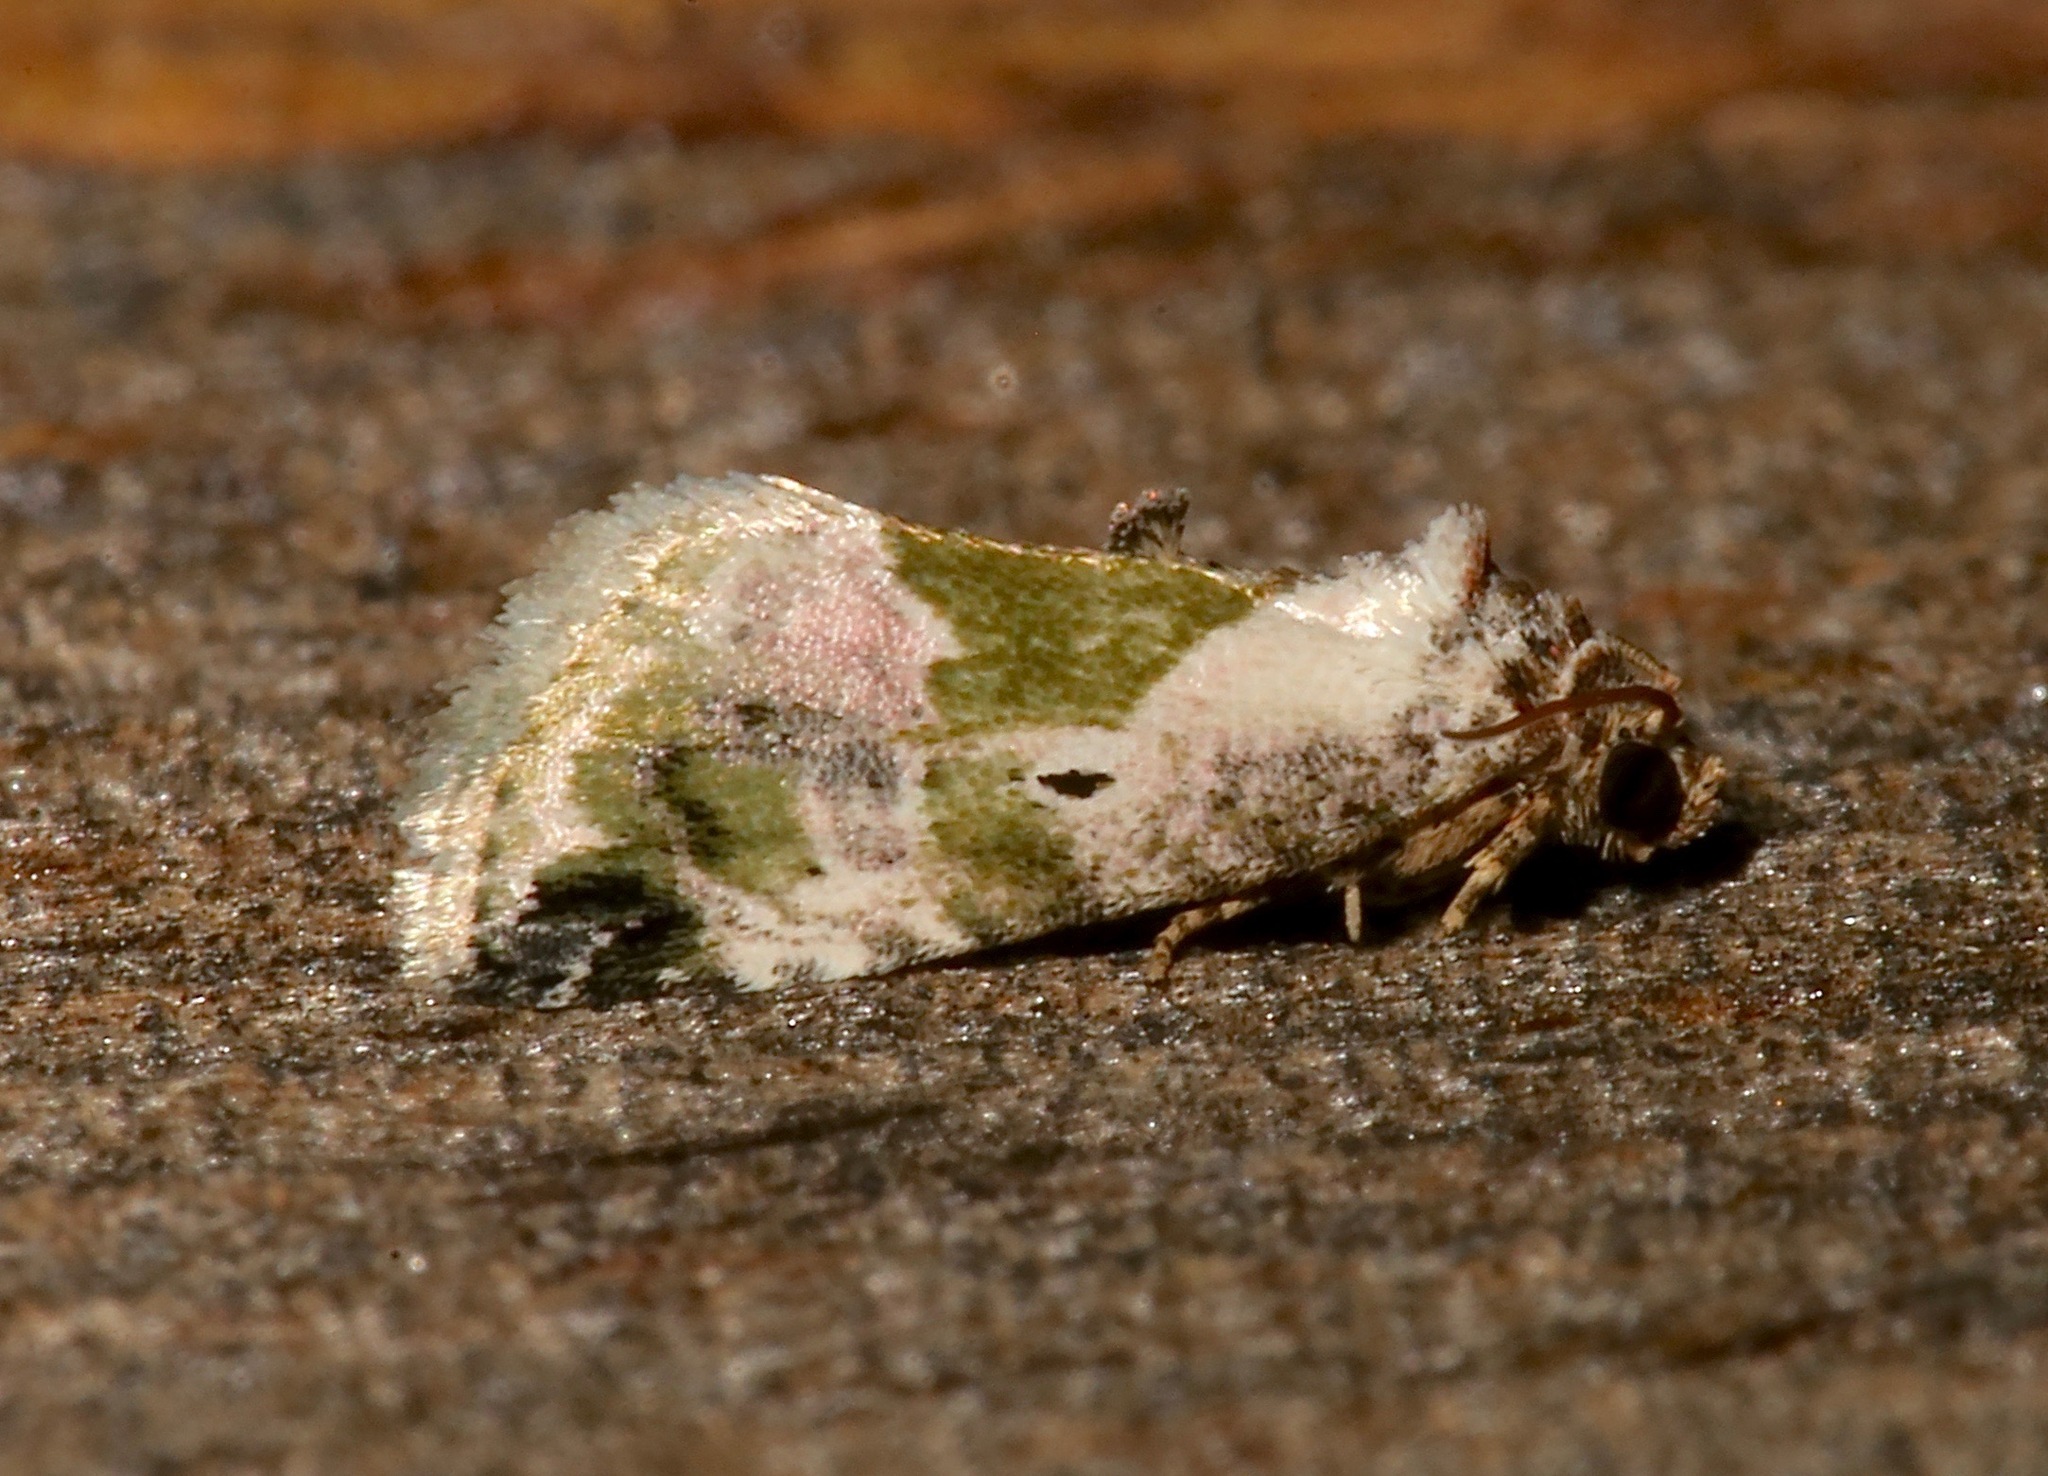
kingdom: Animalia
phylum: Arthropoda
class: Insecta
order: Lepidoptera
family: Noctuidae
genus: Maliattha
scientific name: Maliattha synochitis
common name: Black-dotted glyph
